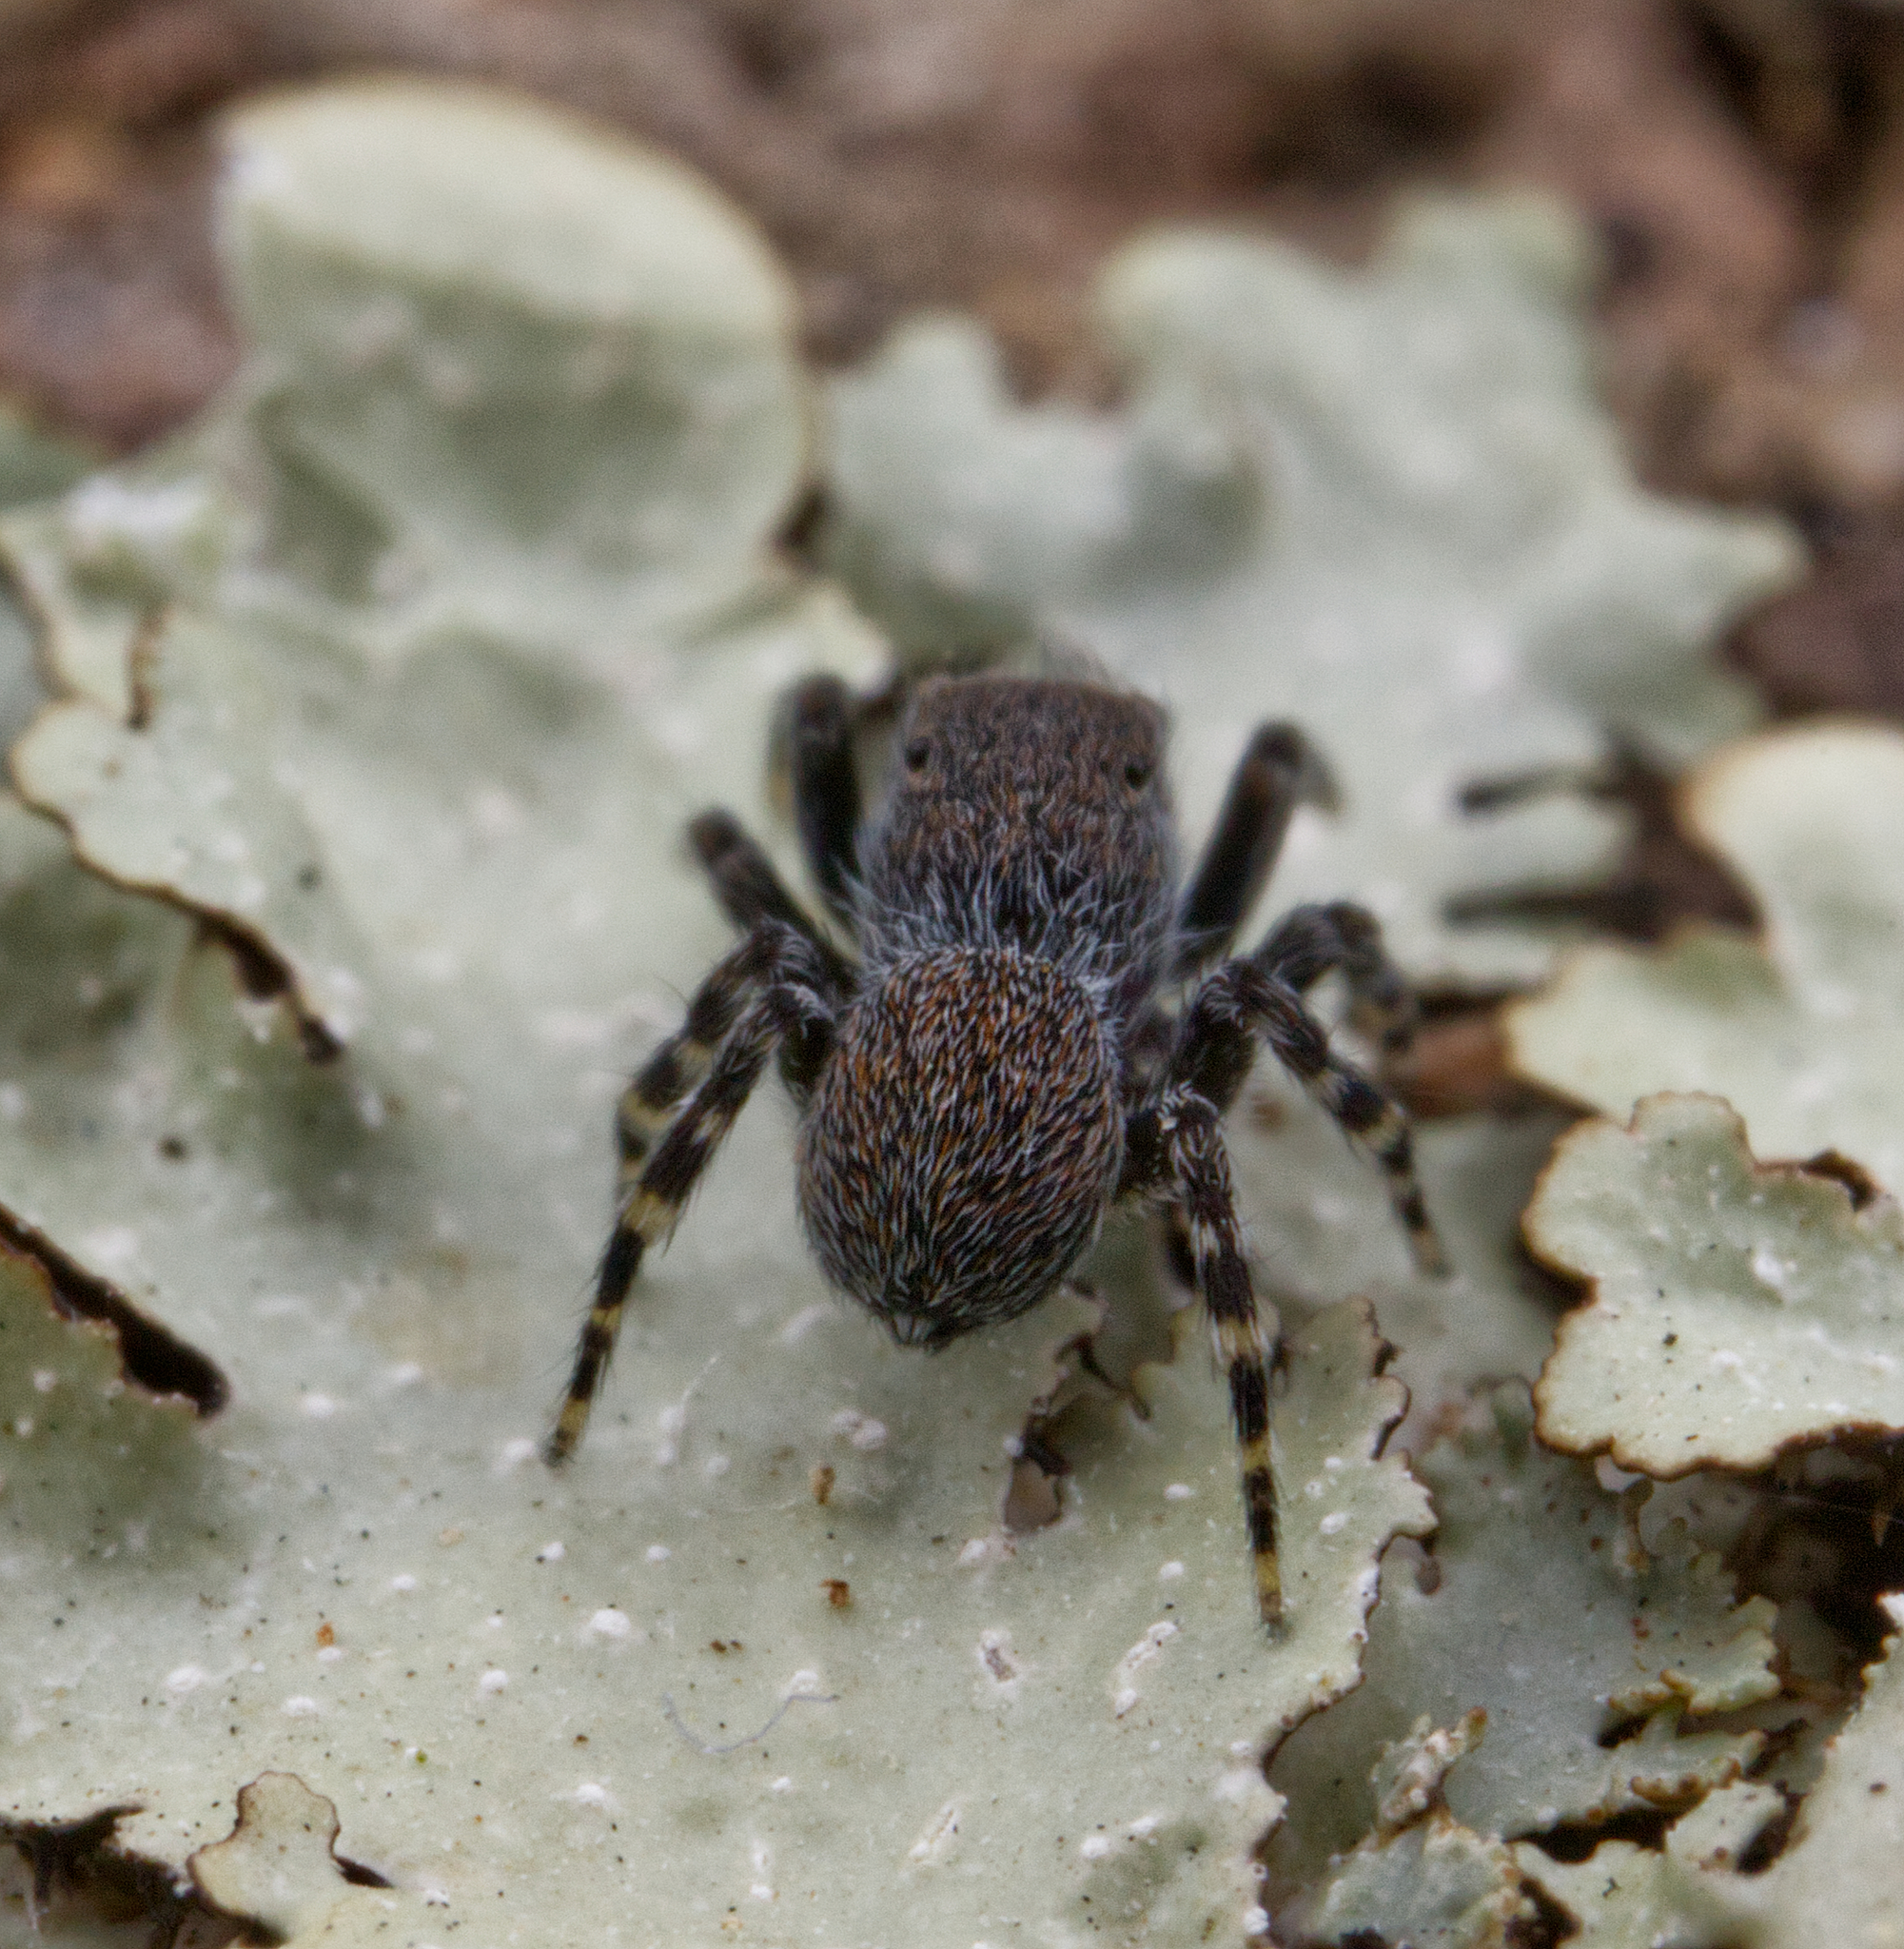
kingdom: Animalia
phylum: Arthropoda
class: Arachnida
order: Araneae
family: Salticidae
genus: Talavera
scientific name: Talavera minuta
